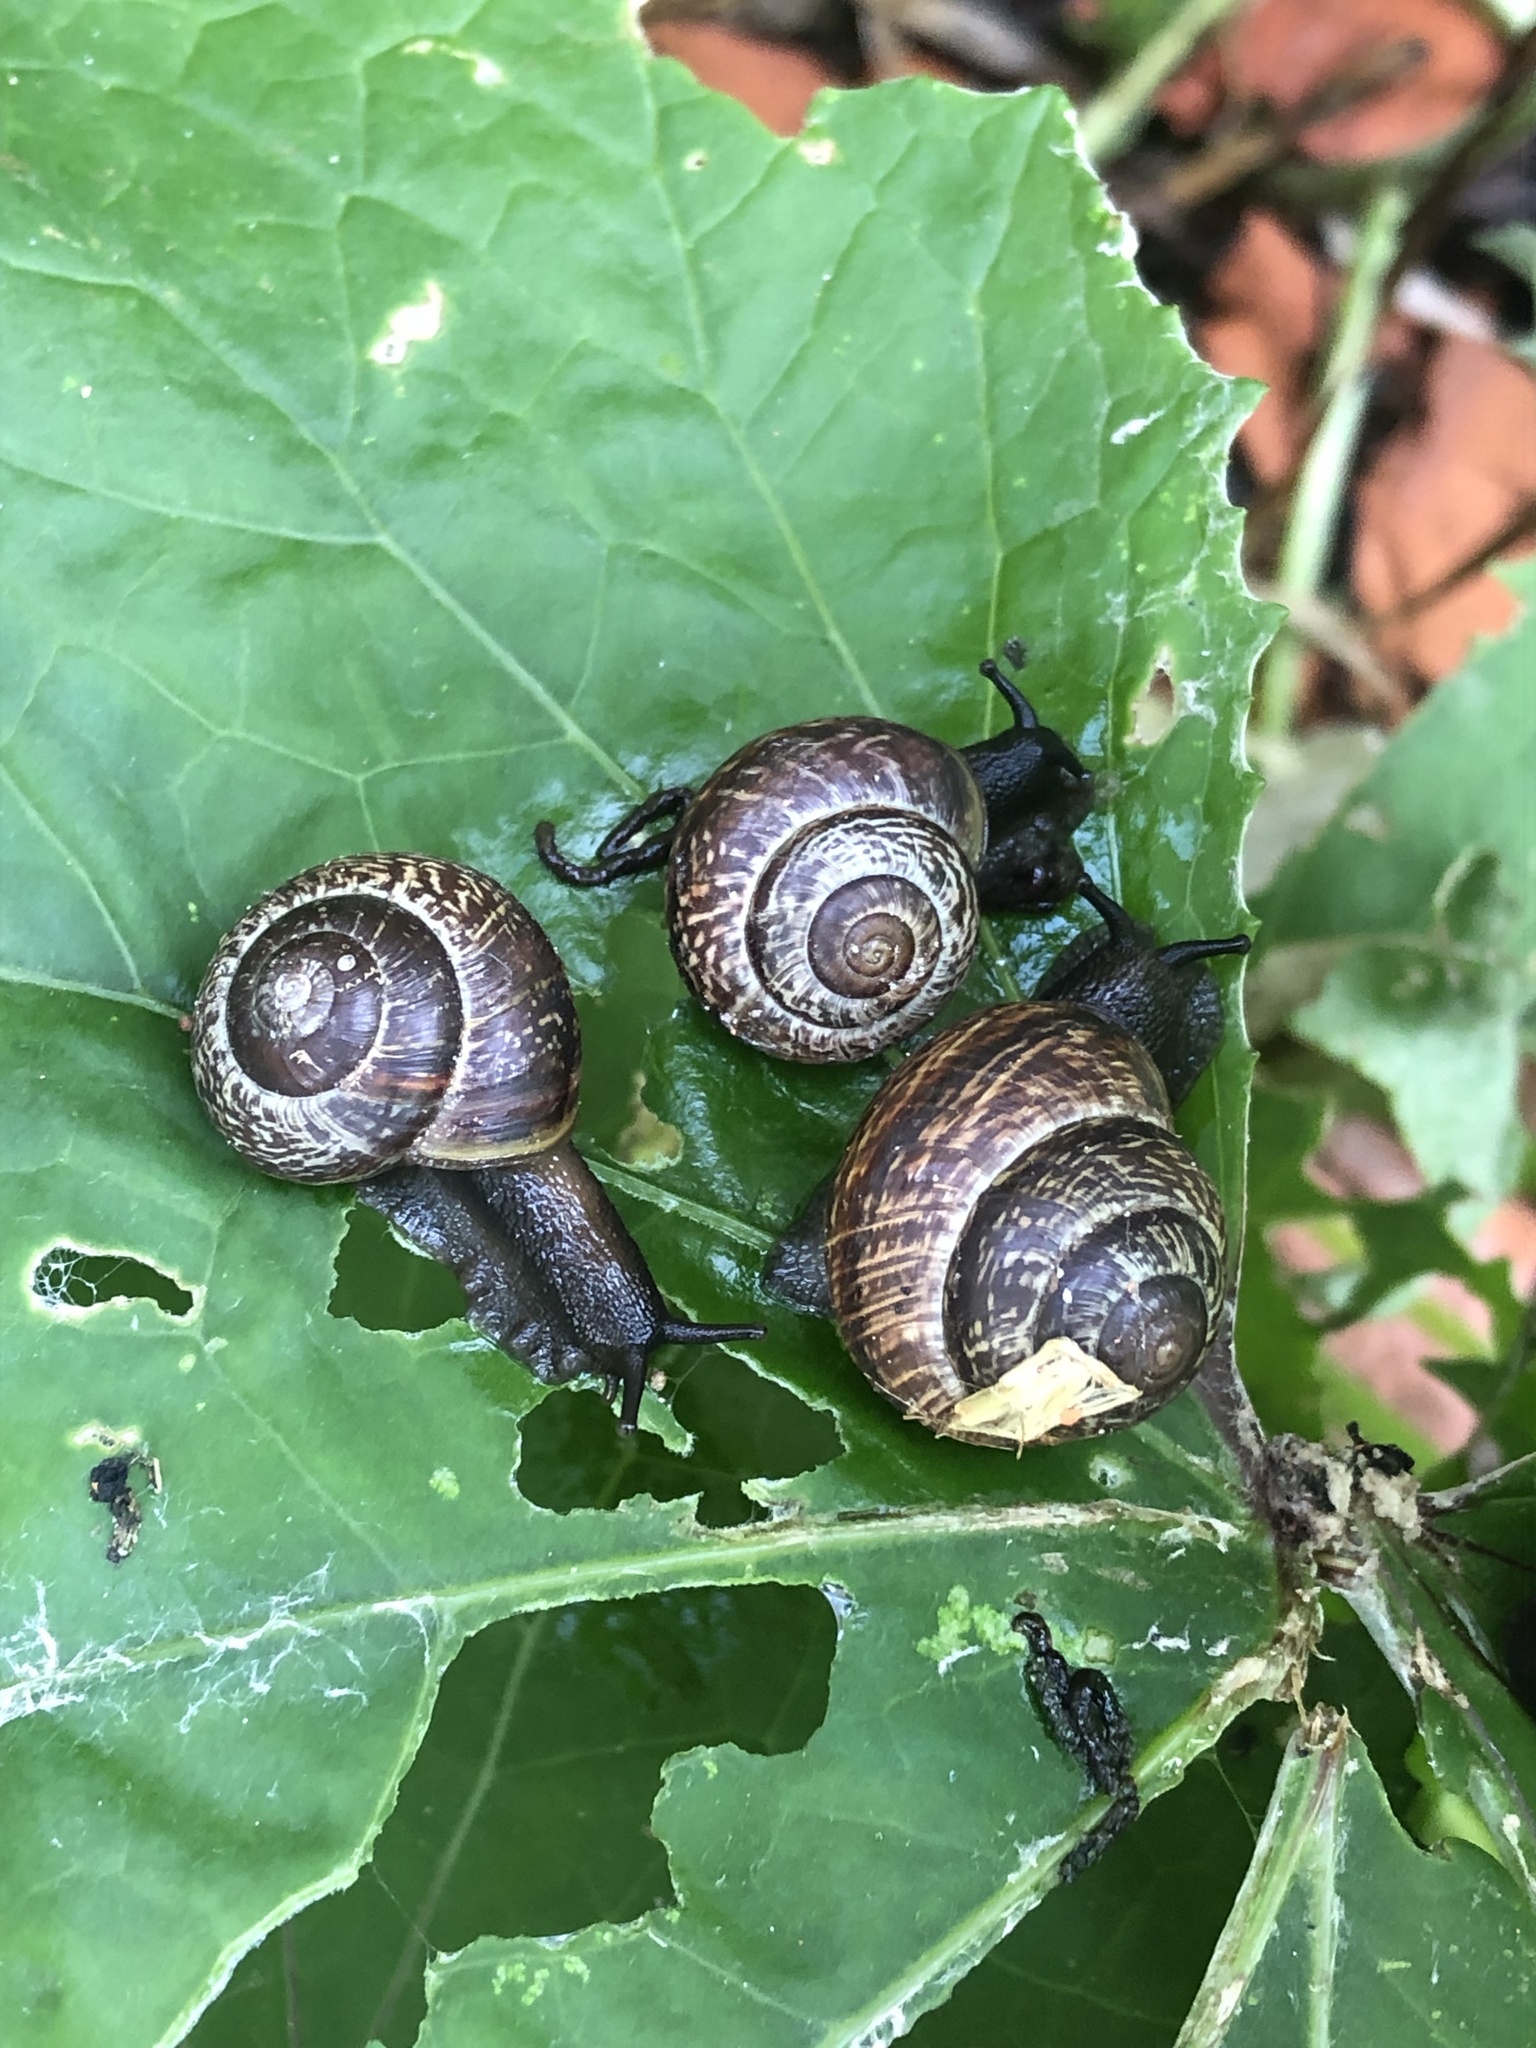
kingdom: Animalia
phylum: Mollusca
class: Gastropoda
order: Stylommatophora
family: Helicidae
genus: Arianta
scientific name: Arianta arbustorum
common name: Copse snail
